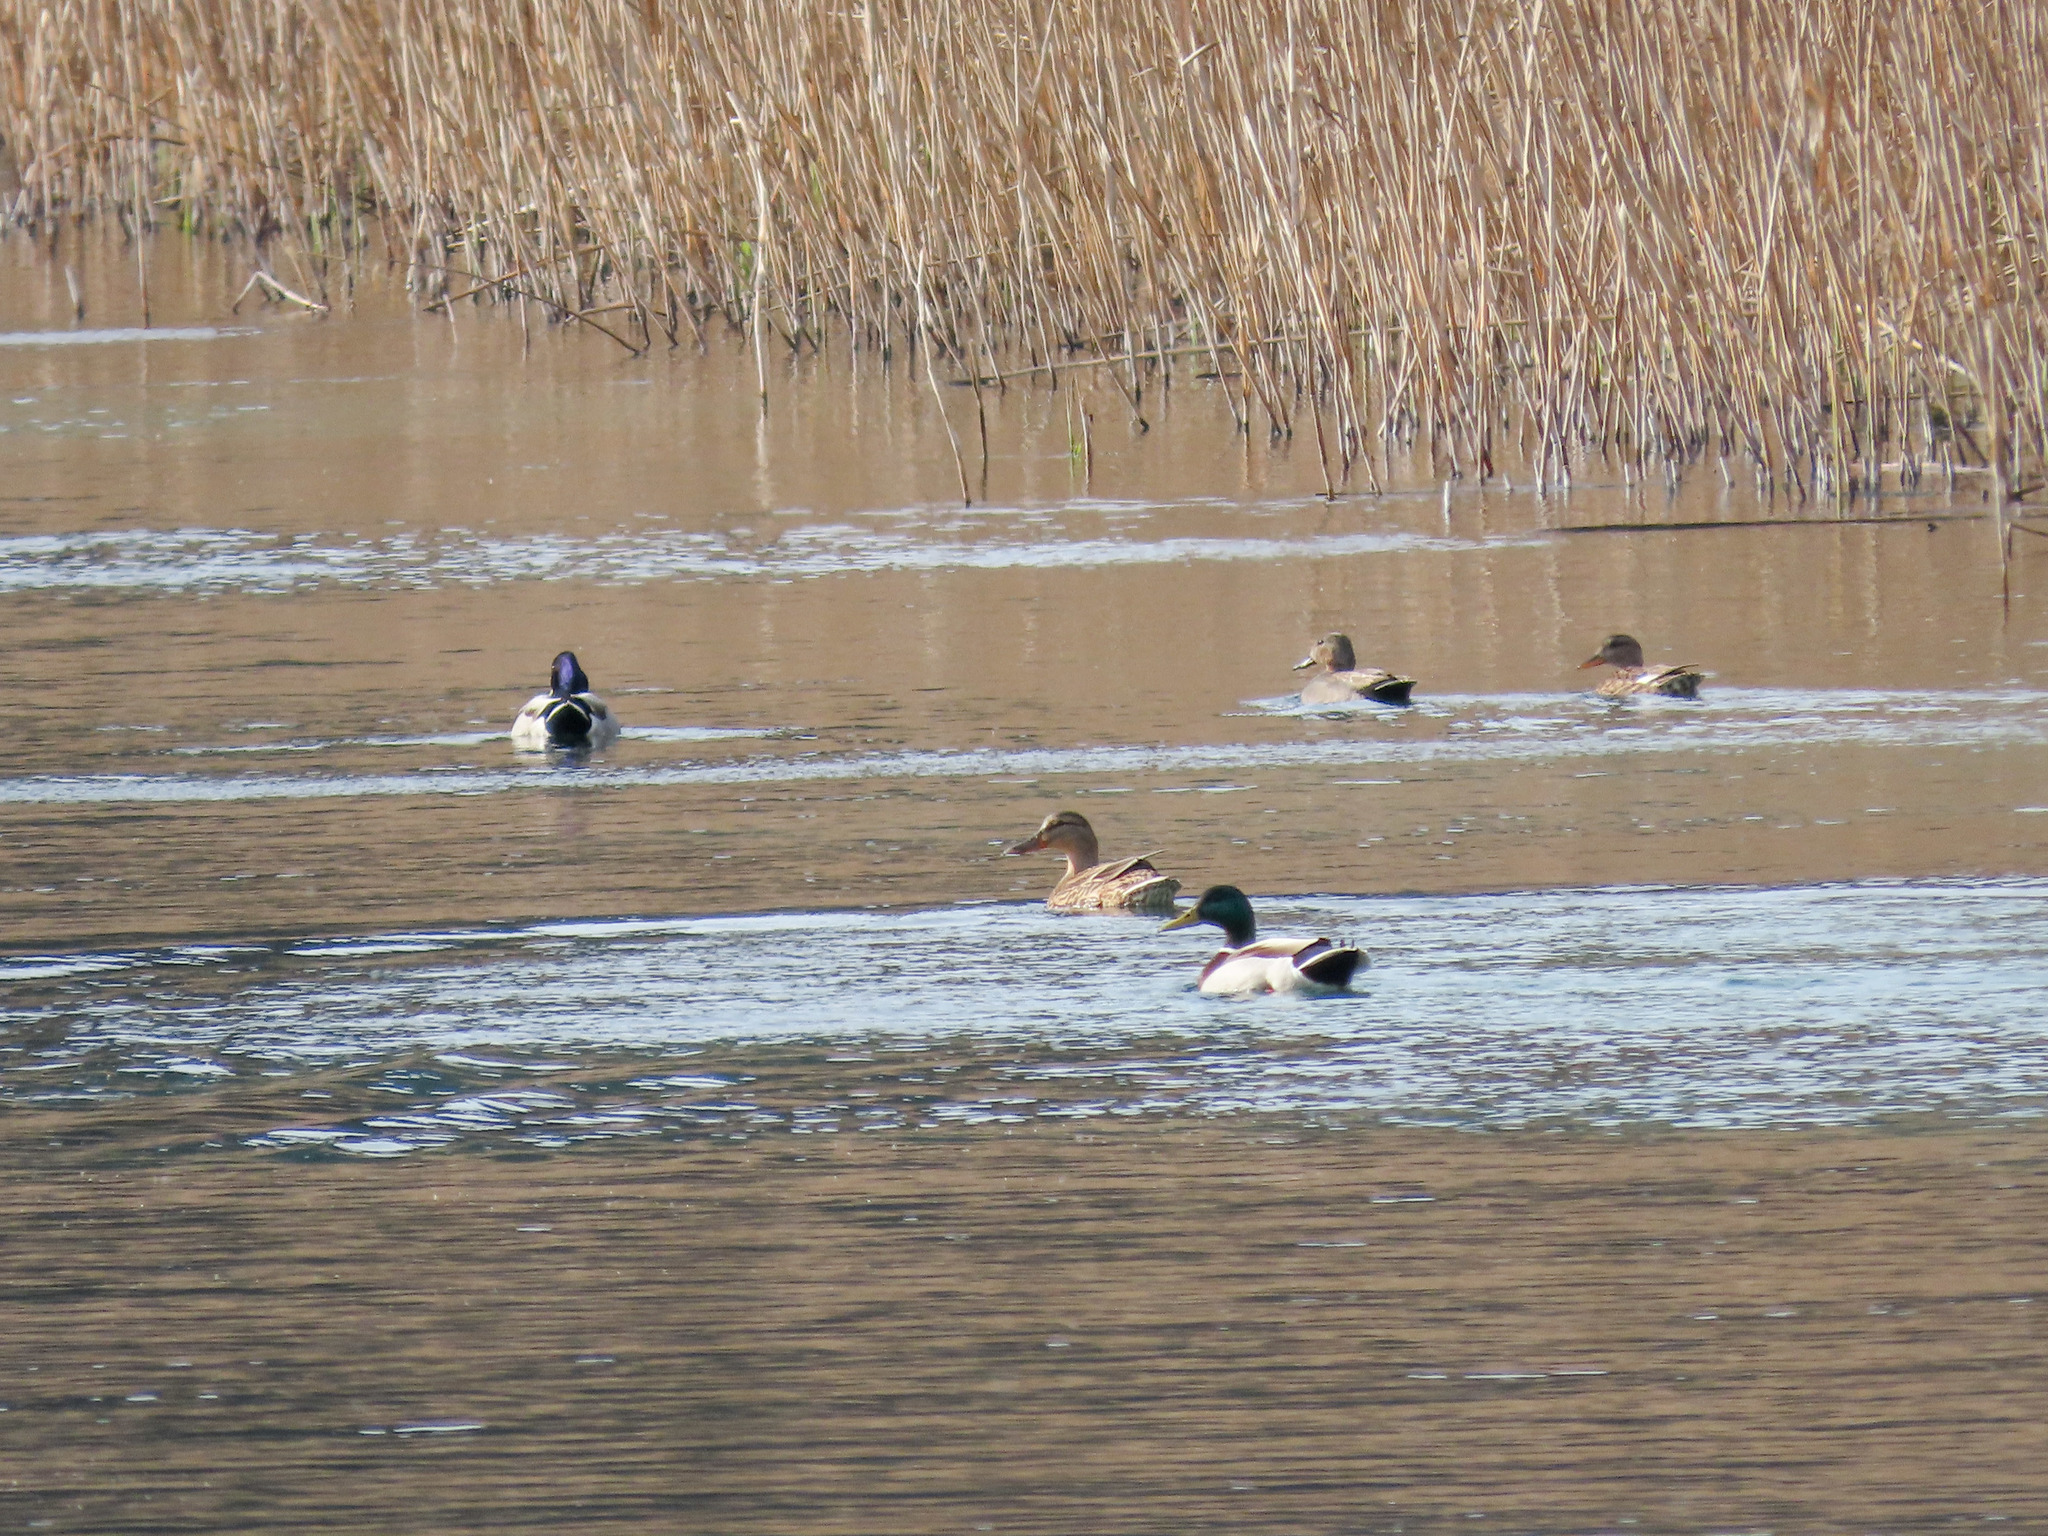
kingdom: Animalia
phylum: Chordata
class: Aves
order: Anseriformes
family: Anatidae
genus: Anas
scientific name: Anas platyrhynchos
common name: Mallard
